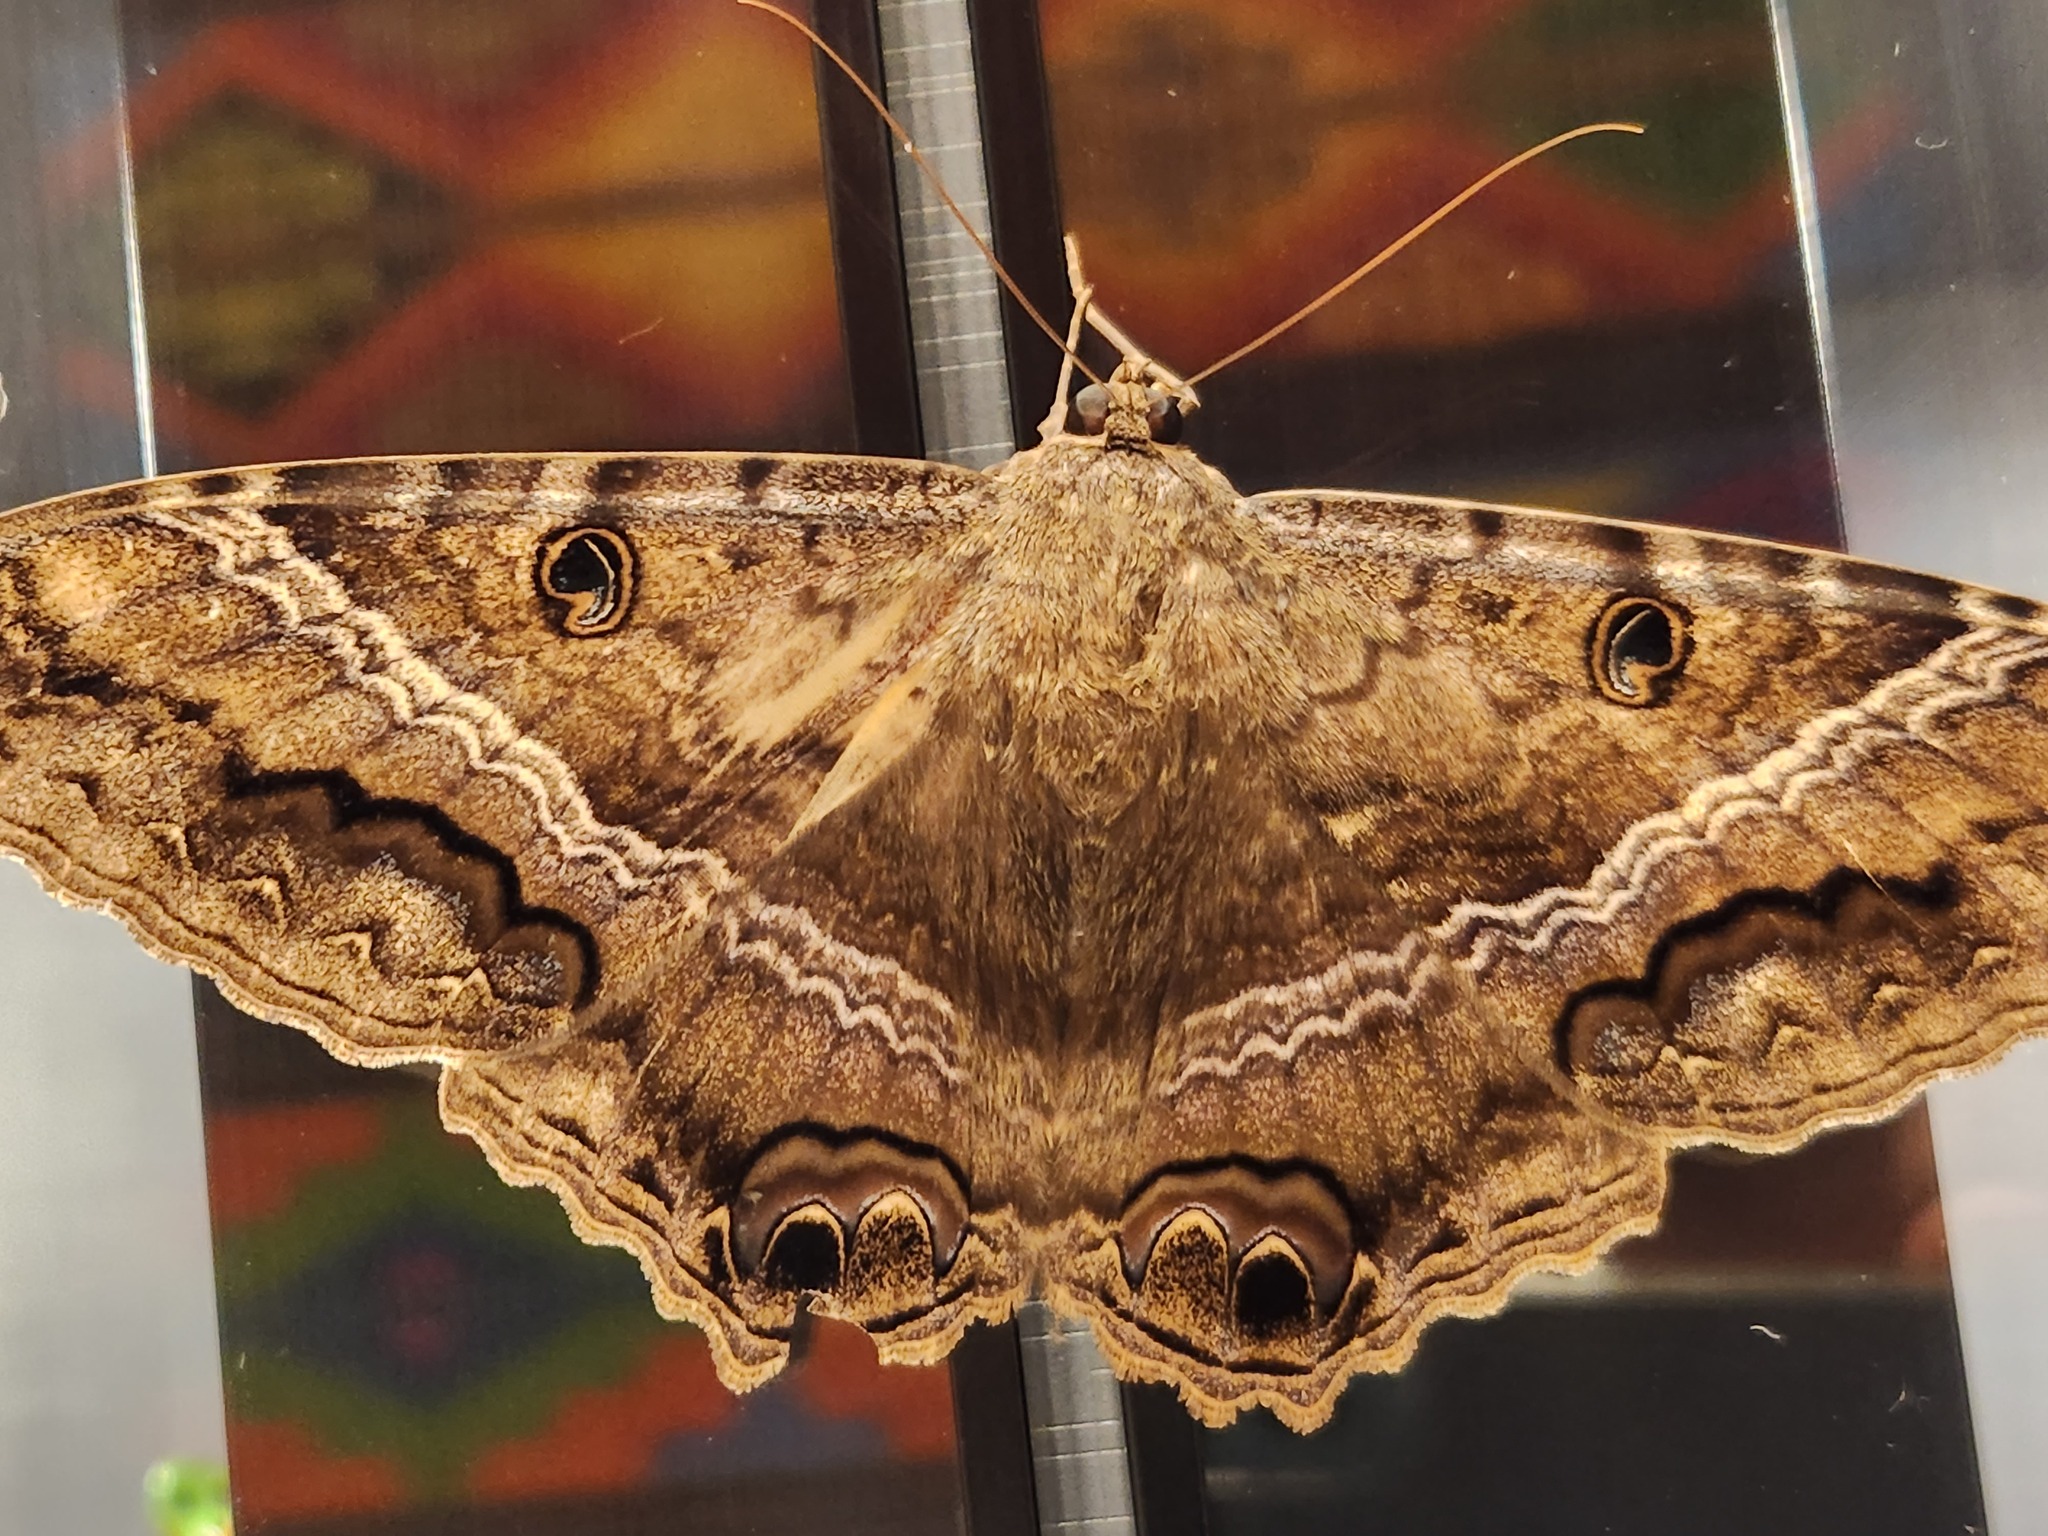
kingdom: Animalia
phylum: Arthropoda
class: Insecta
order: Lepidoptera
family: Erebidae
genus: Ascalapha
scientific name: Ascalapha odorata
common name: Black witch
